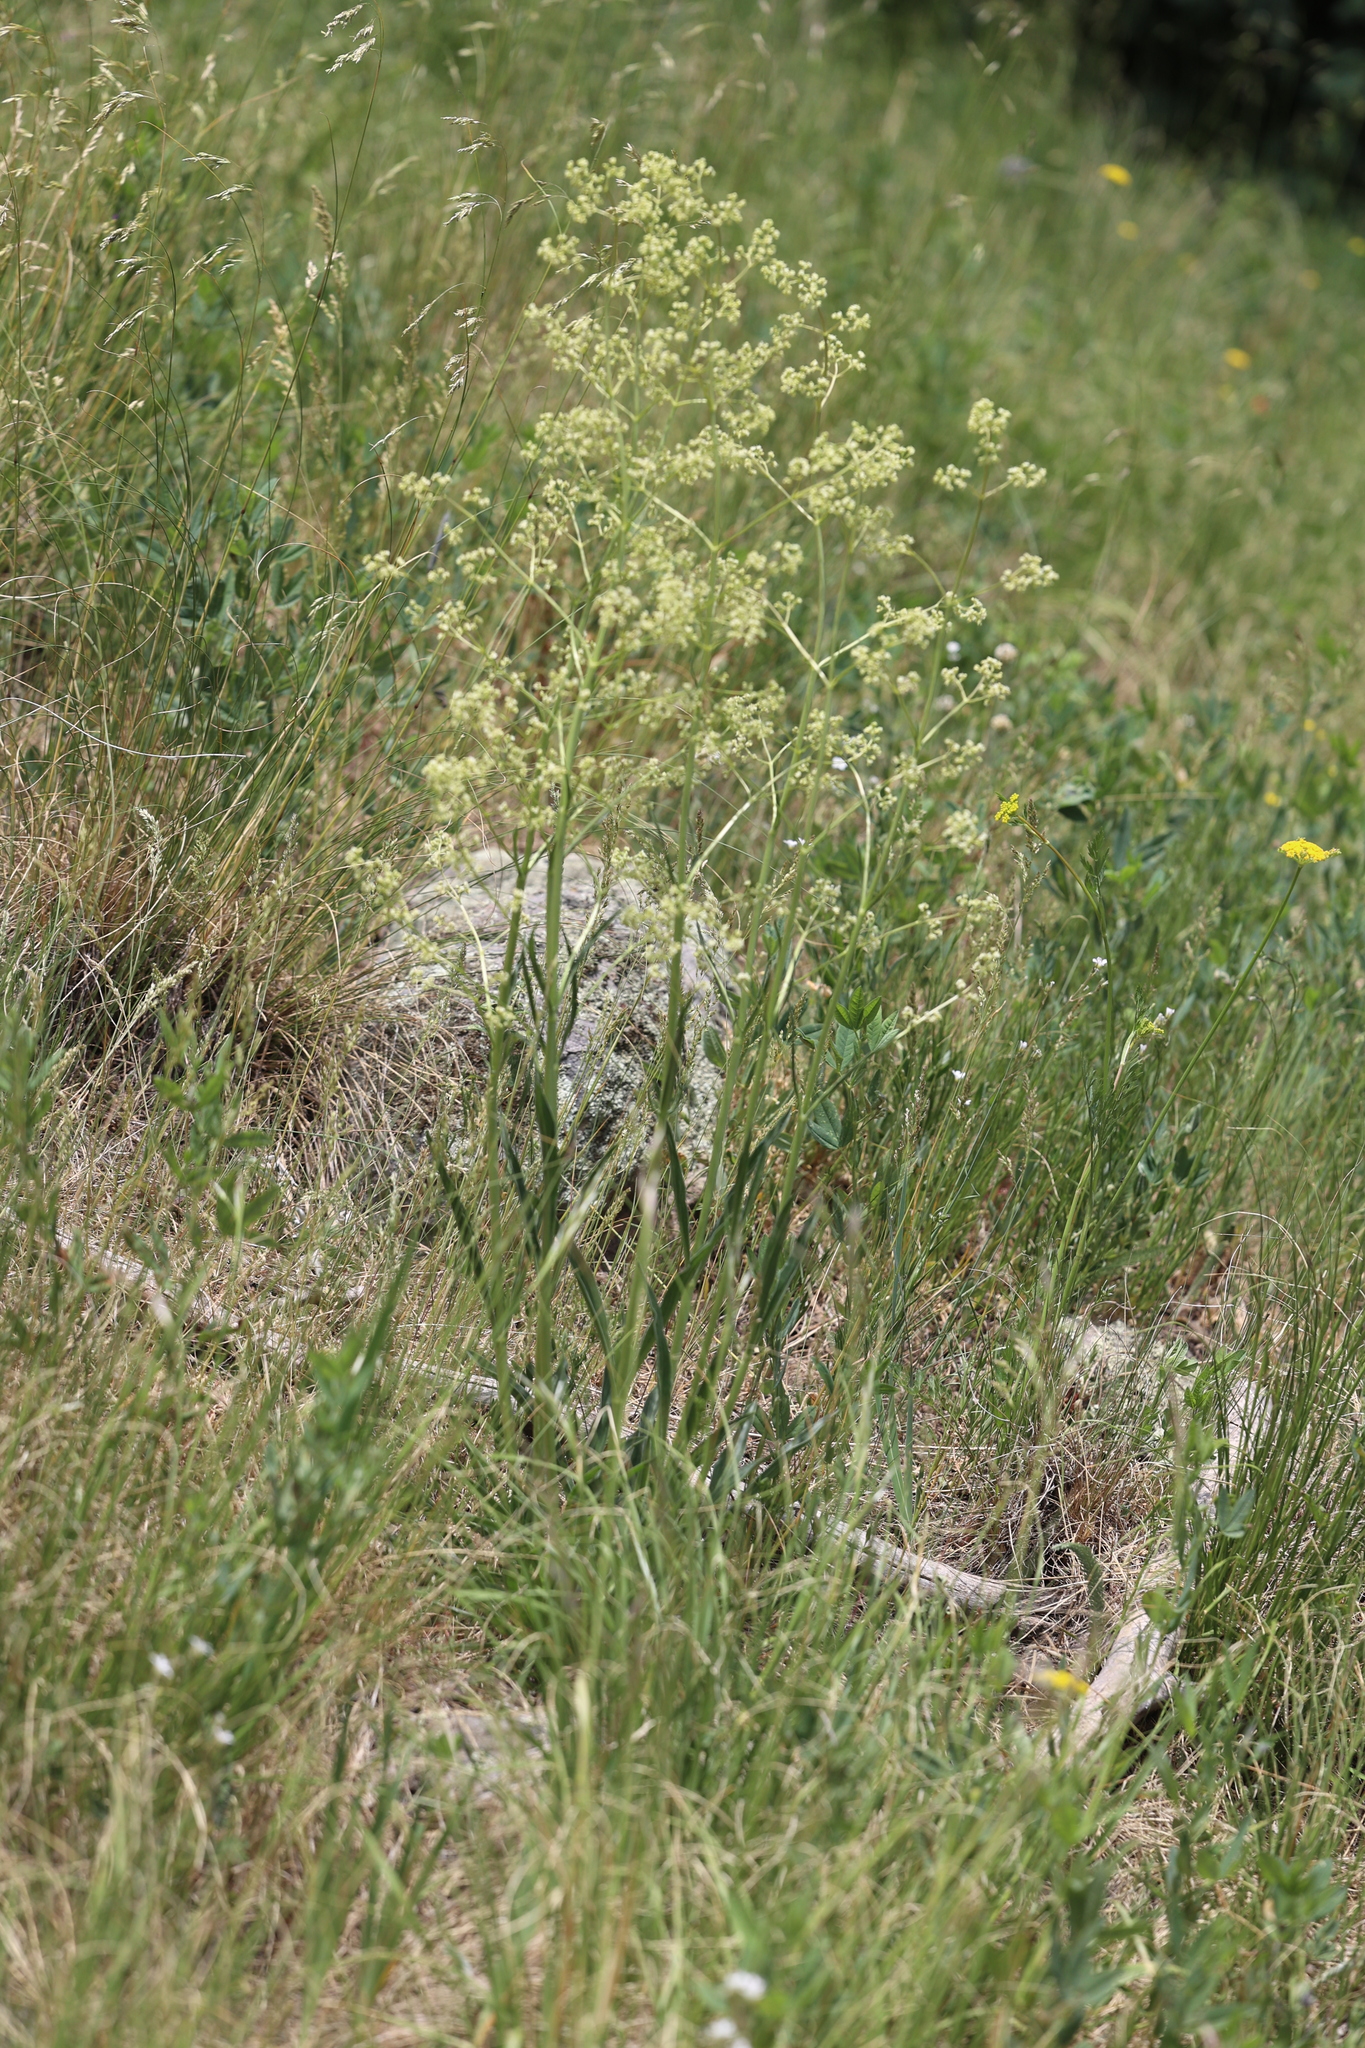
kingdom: Plantae
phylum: Tracheophyta
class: Magnoliopsida
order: Dipsacales
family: Caprifoliaceae
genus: Valeriana
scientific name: Valeriana edulis
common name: Taproot valerian
